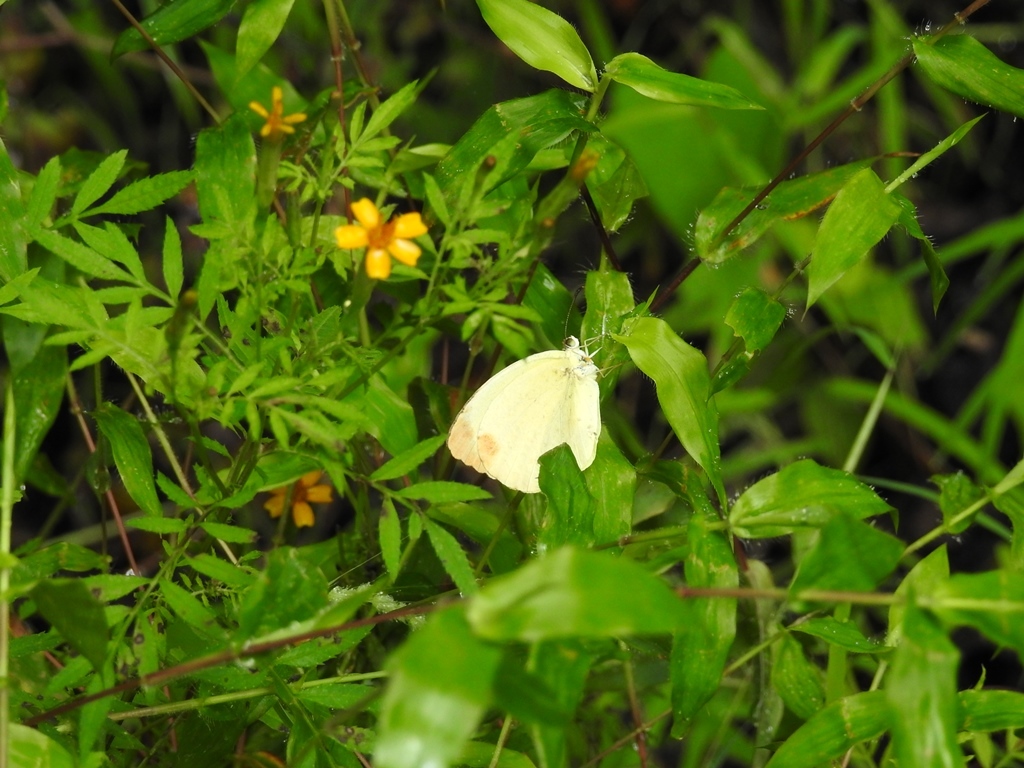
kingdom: Animalia
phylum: Arthropoda
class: Insecta
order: Lepidoptera
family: Pieridae
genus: Pyrisitia
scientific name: Pyrisitia westwoodi
